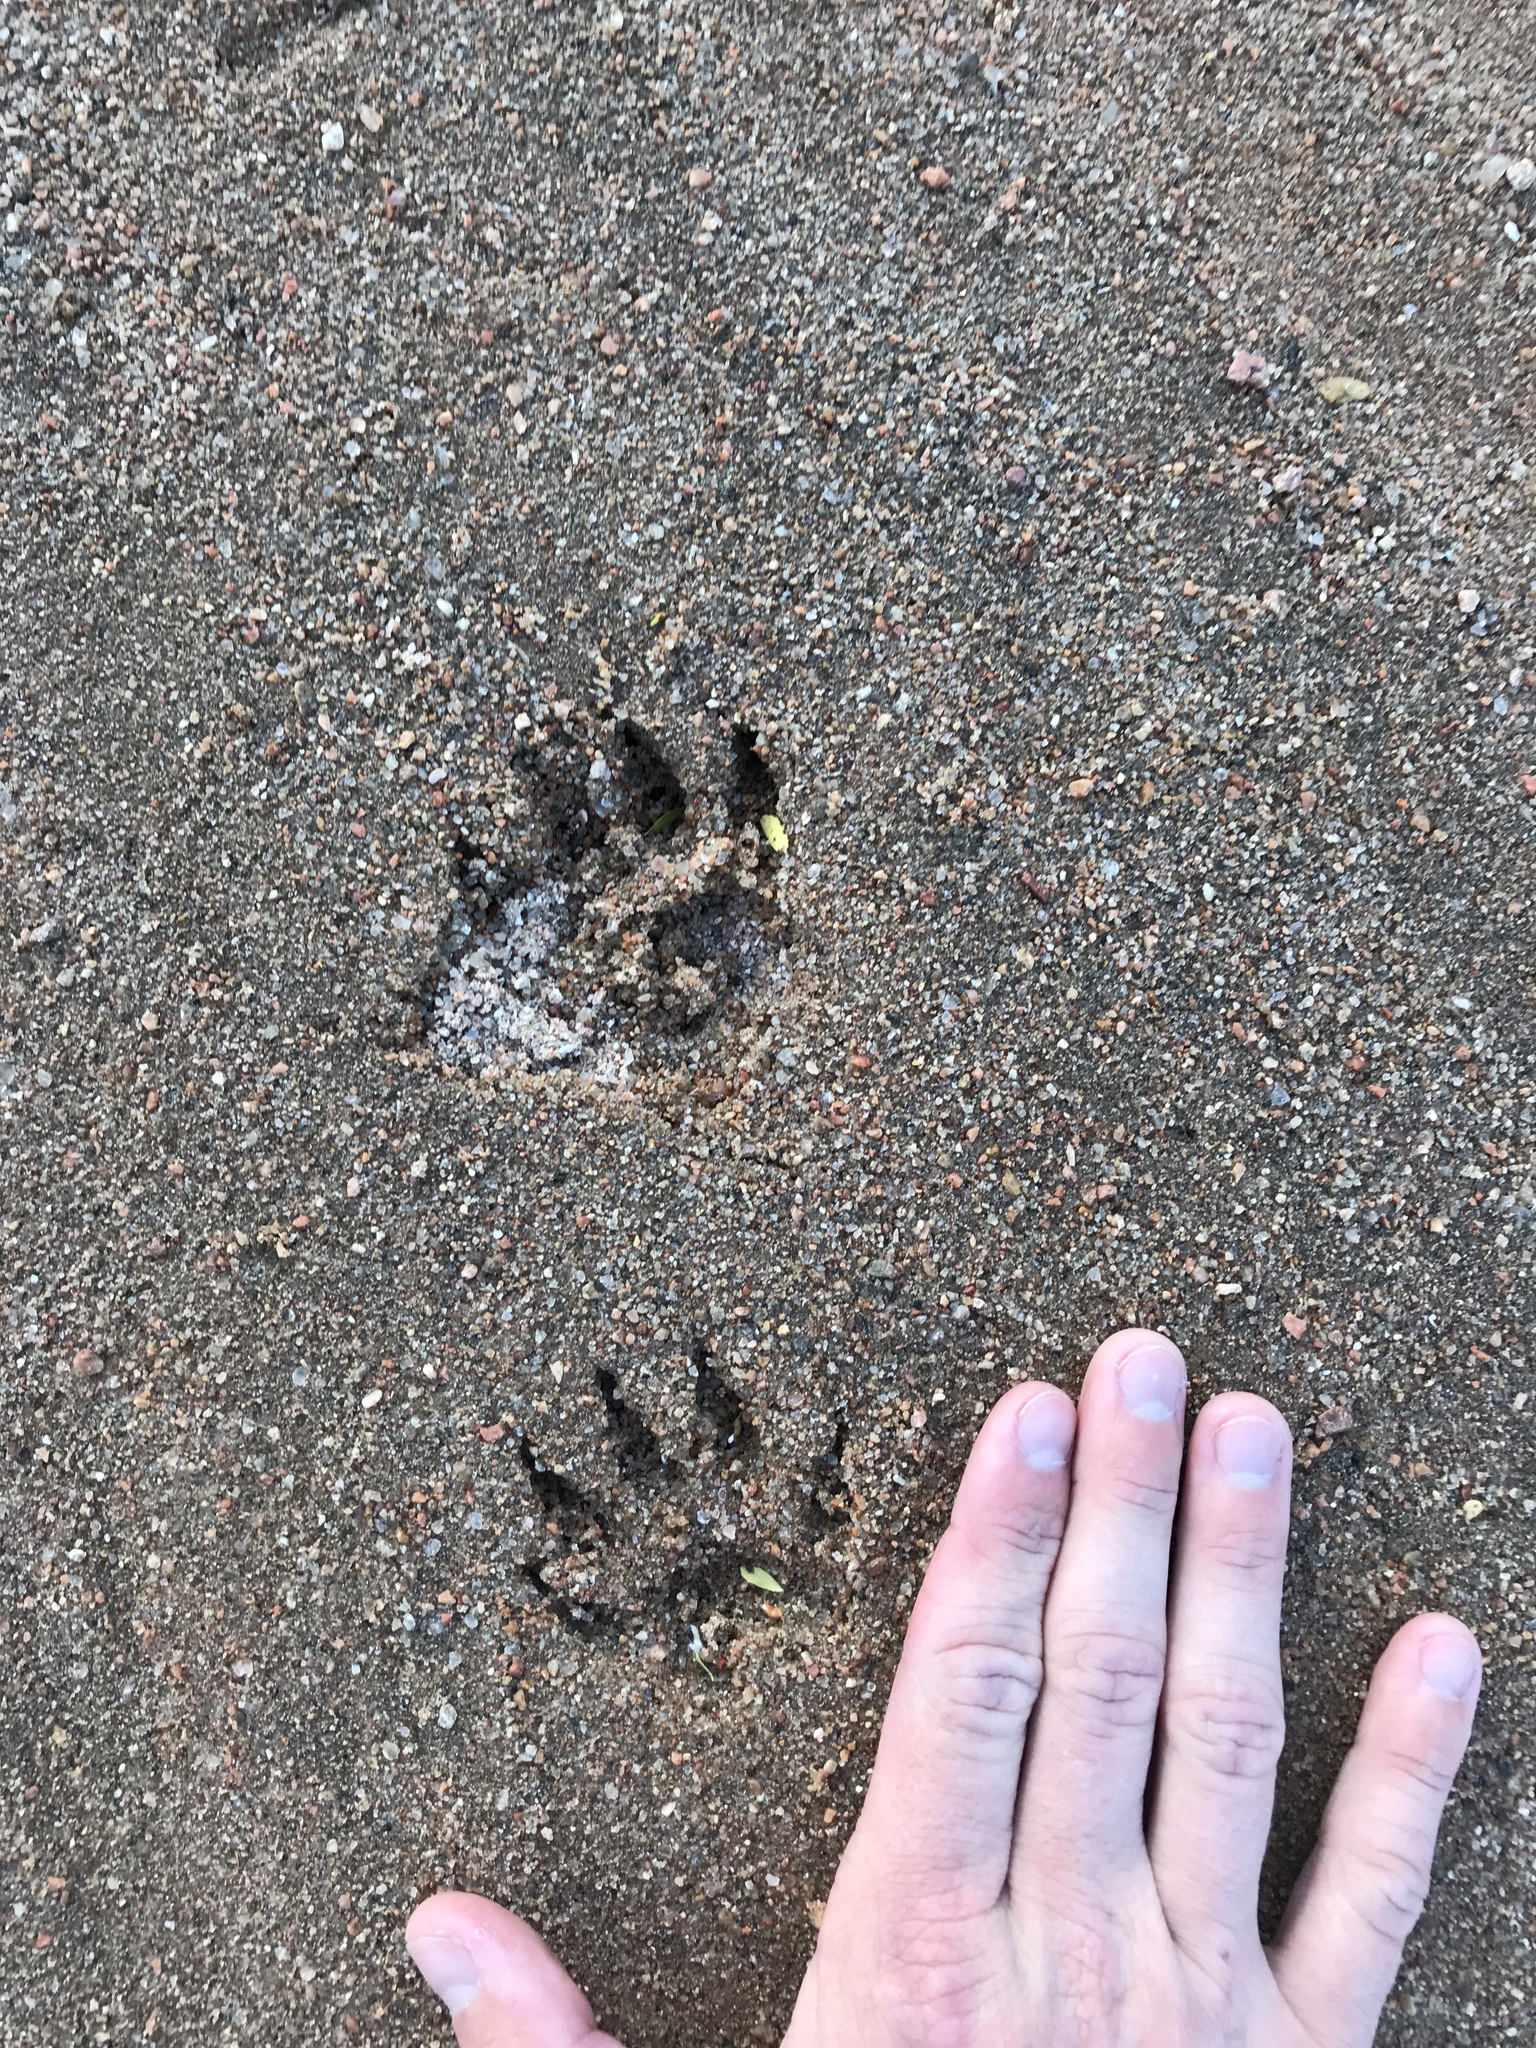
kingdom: Animalia
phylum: Chordata
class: Mammalia
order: Carnivora
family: Procyonidae
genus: Procyon
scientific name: Procyon lotor
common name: Raccoon
